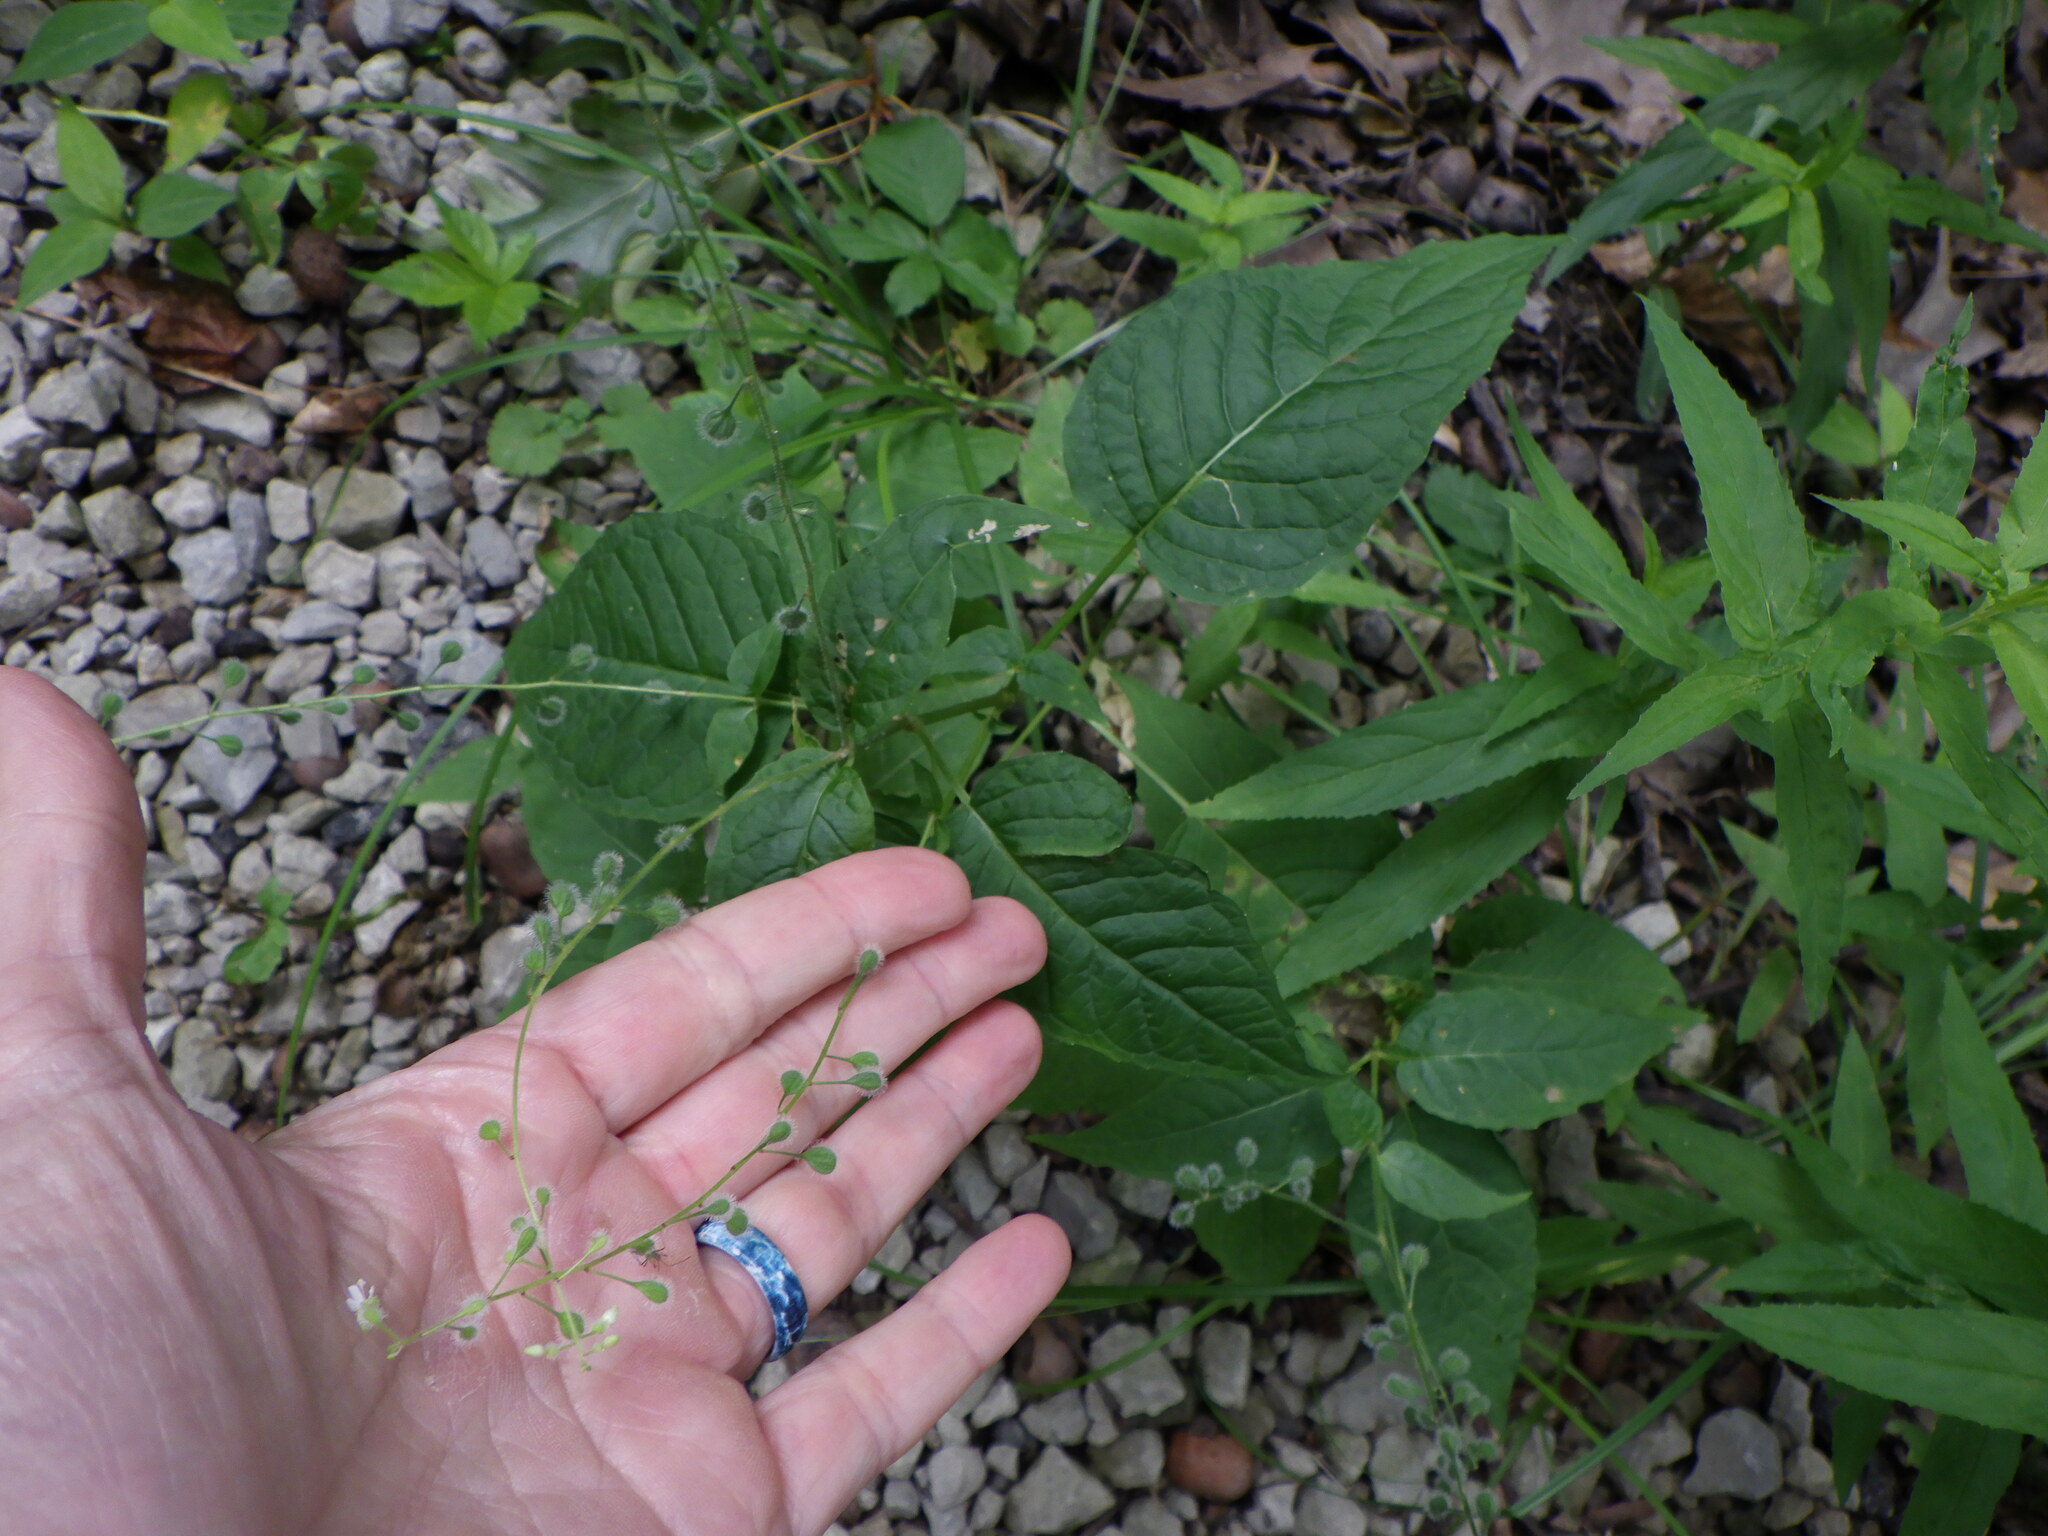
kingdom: Plantae
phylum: Tracheophyta
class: Magnoliopsida
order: Myrtales
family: Onagraceae
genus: Circaea
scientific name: Circaea canadensis
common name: Broad-leaved enchanter's nightshade
